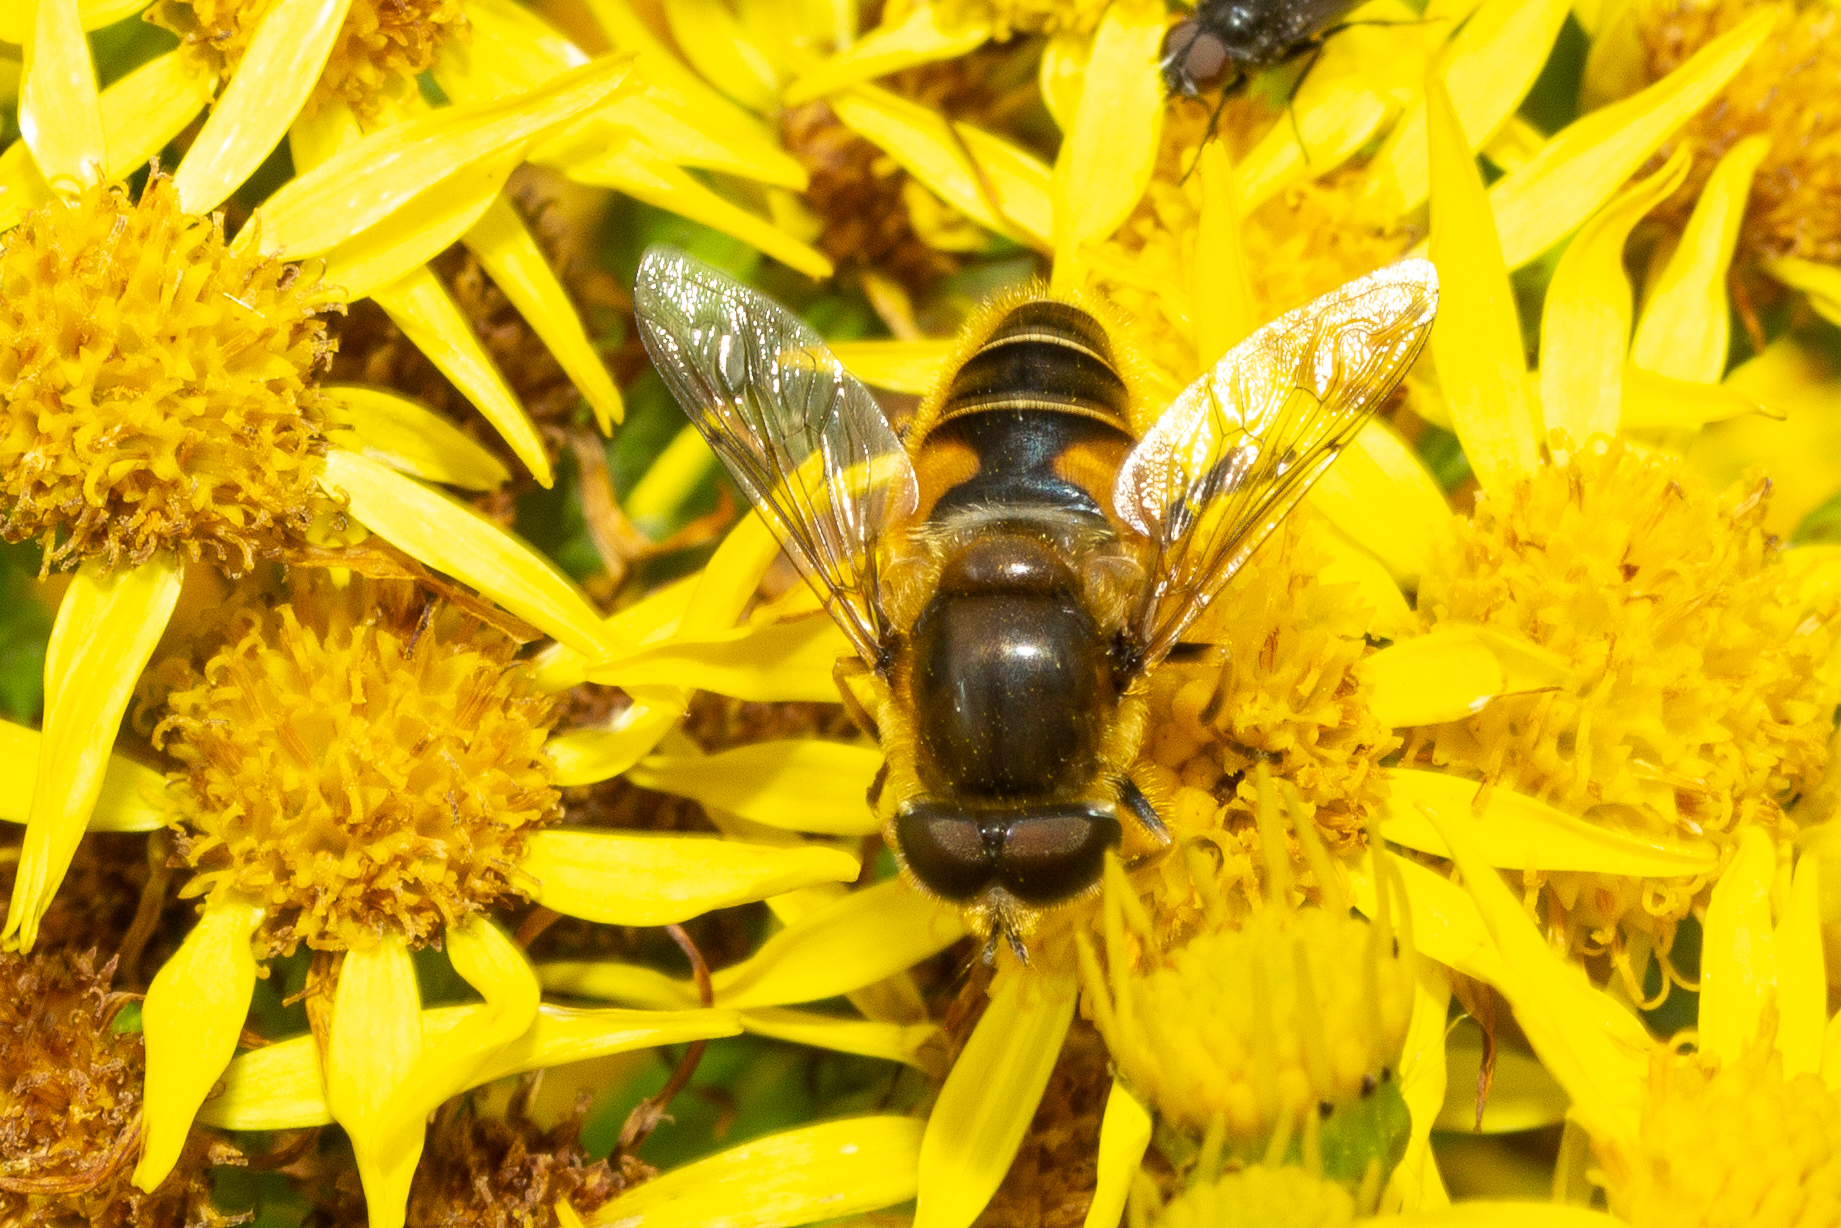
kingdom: Animalia
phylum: Arthropoda
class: Insecta
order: Diptera
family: Syrphidae
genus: Eristalis
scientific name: Eristalis nemorum
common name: Orange-spined drone fly
